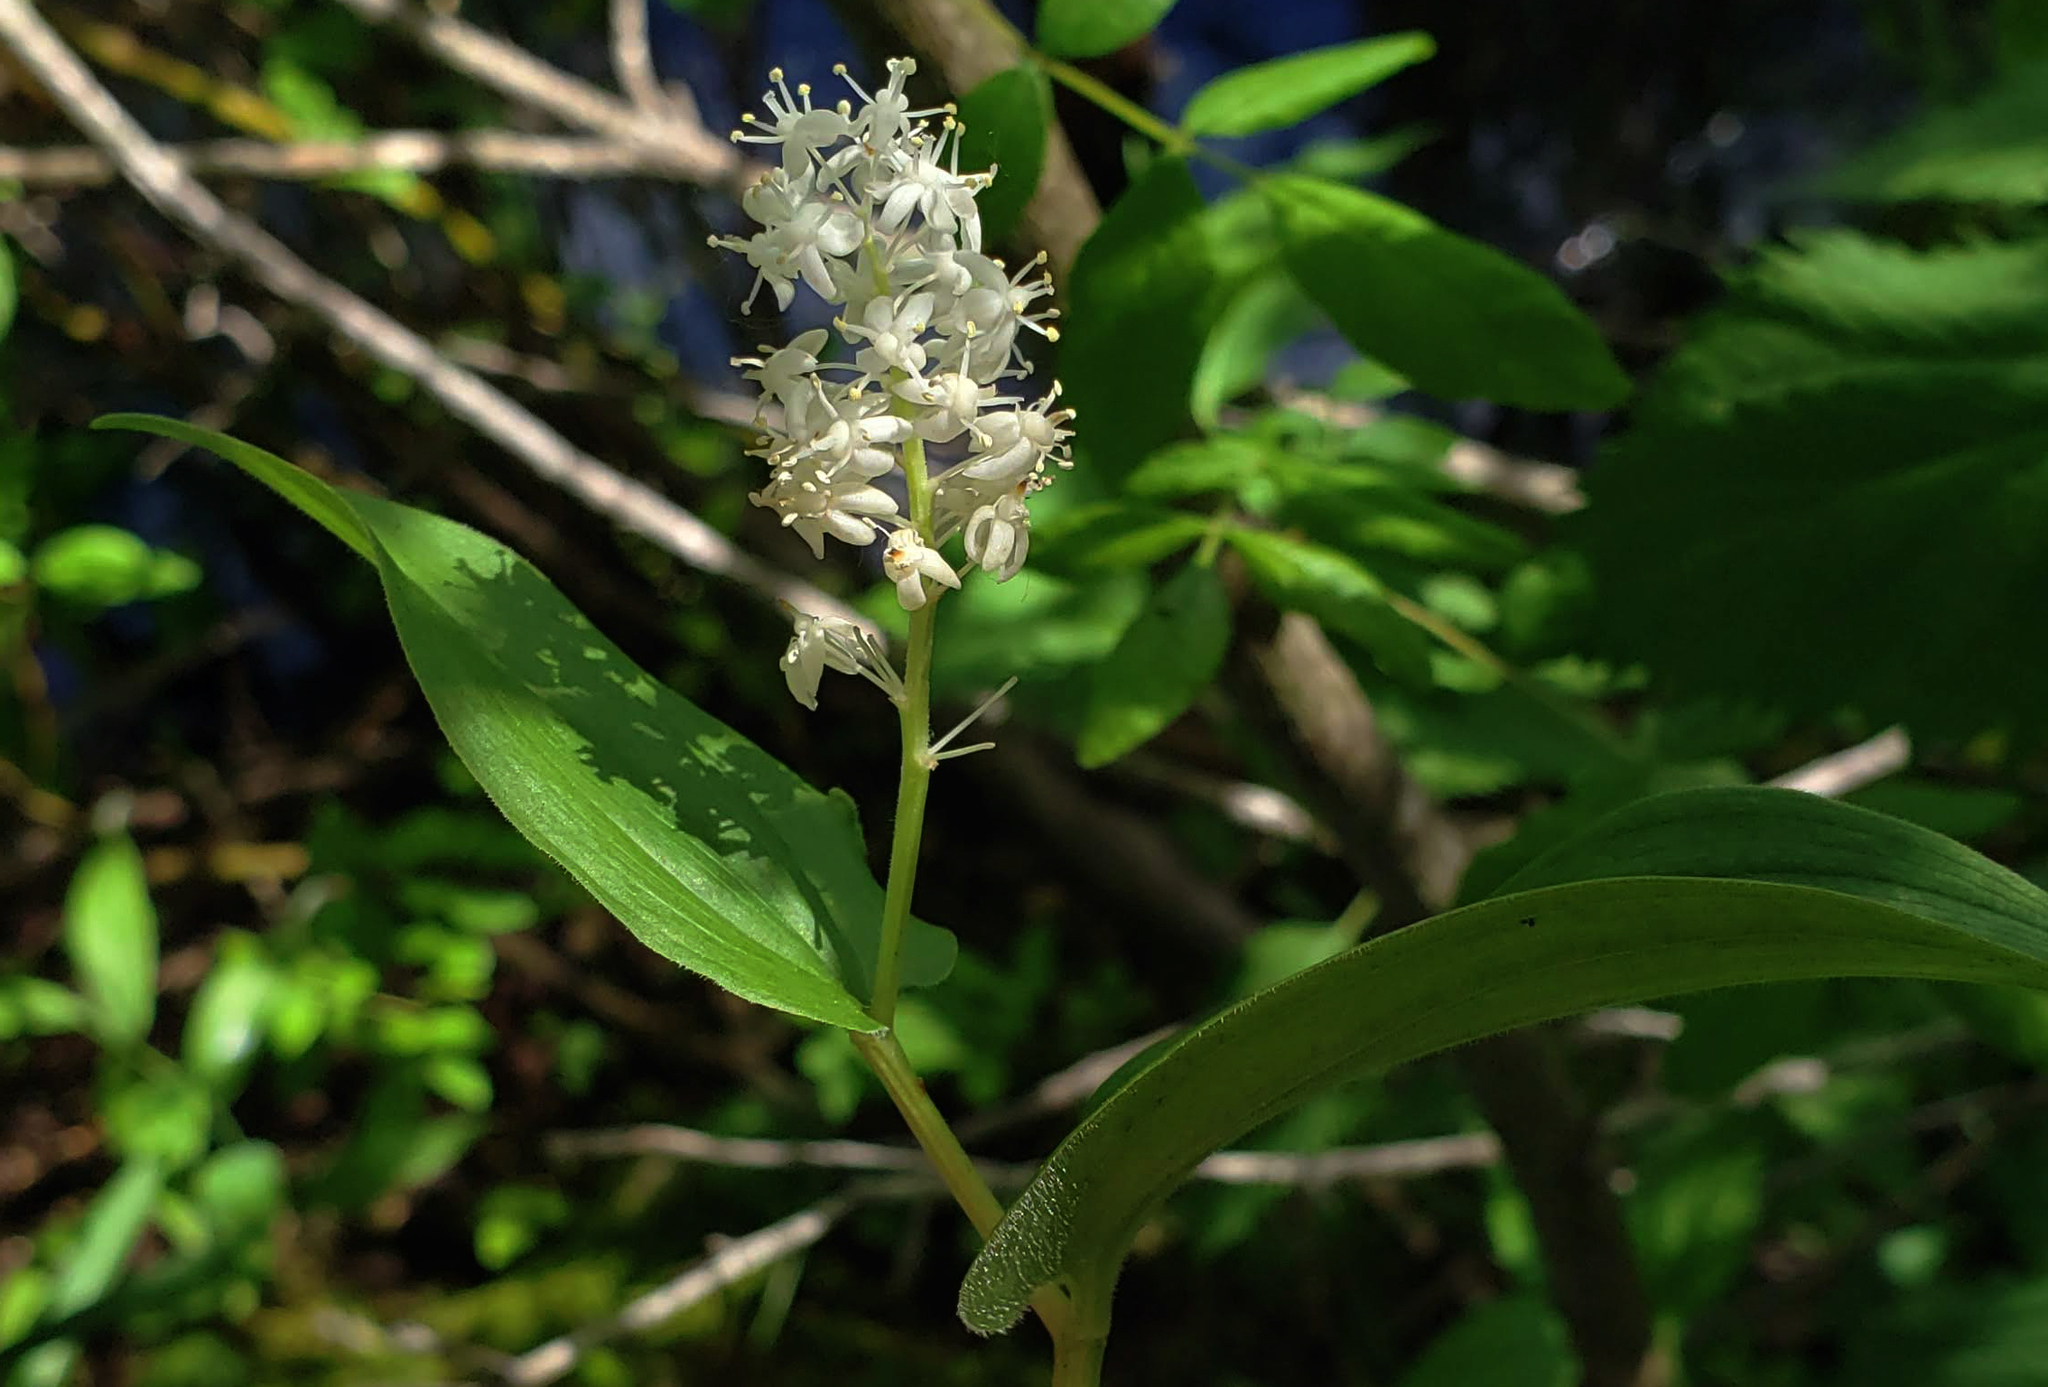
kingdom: Plantae
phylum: Tracheophyta
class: Liliopsida
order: Asparagales
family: Asparagaceae
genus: Maianthemum
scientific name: Maianthemum canadense
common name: False lily-of-the-valley
